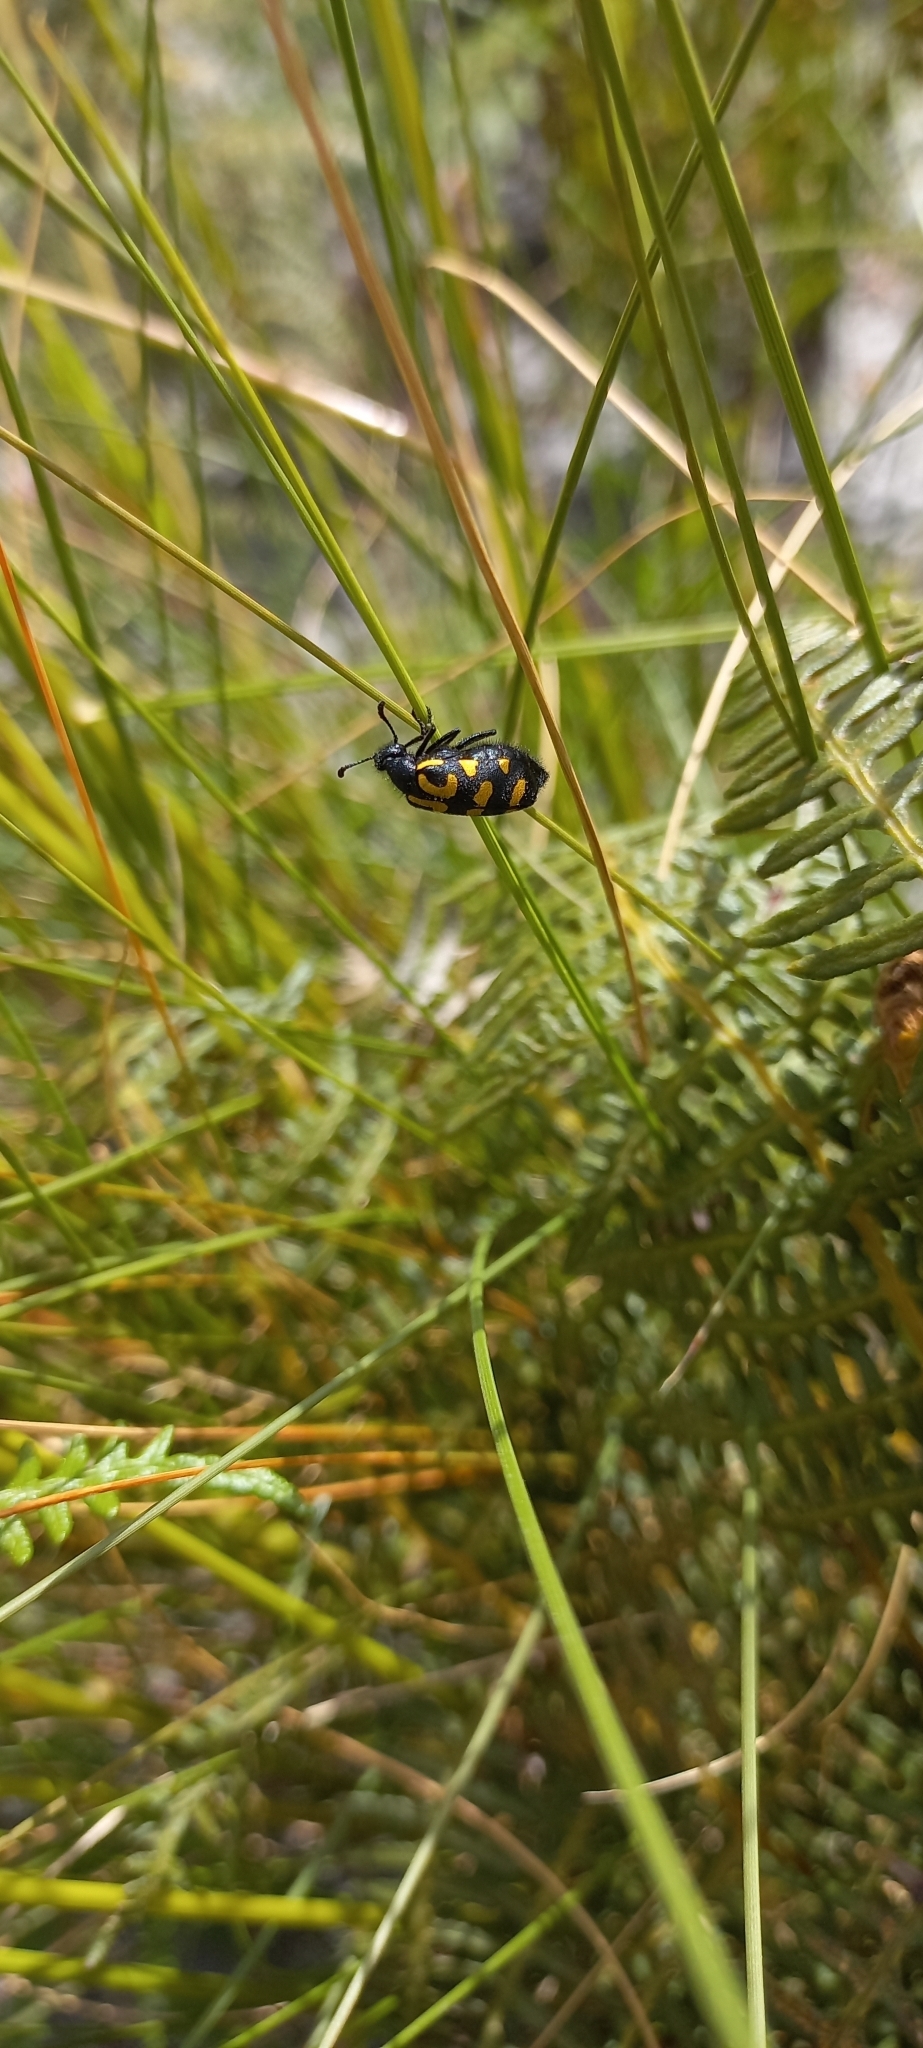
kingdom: Animalia
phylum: Arthropoda
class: Insecta
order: Coleoptera
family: Meloidae
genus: Ceroctis
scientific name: Ceroctis capensis
